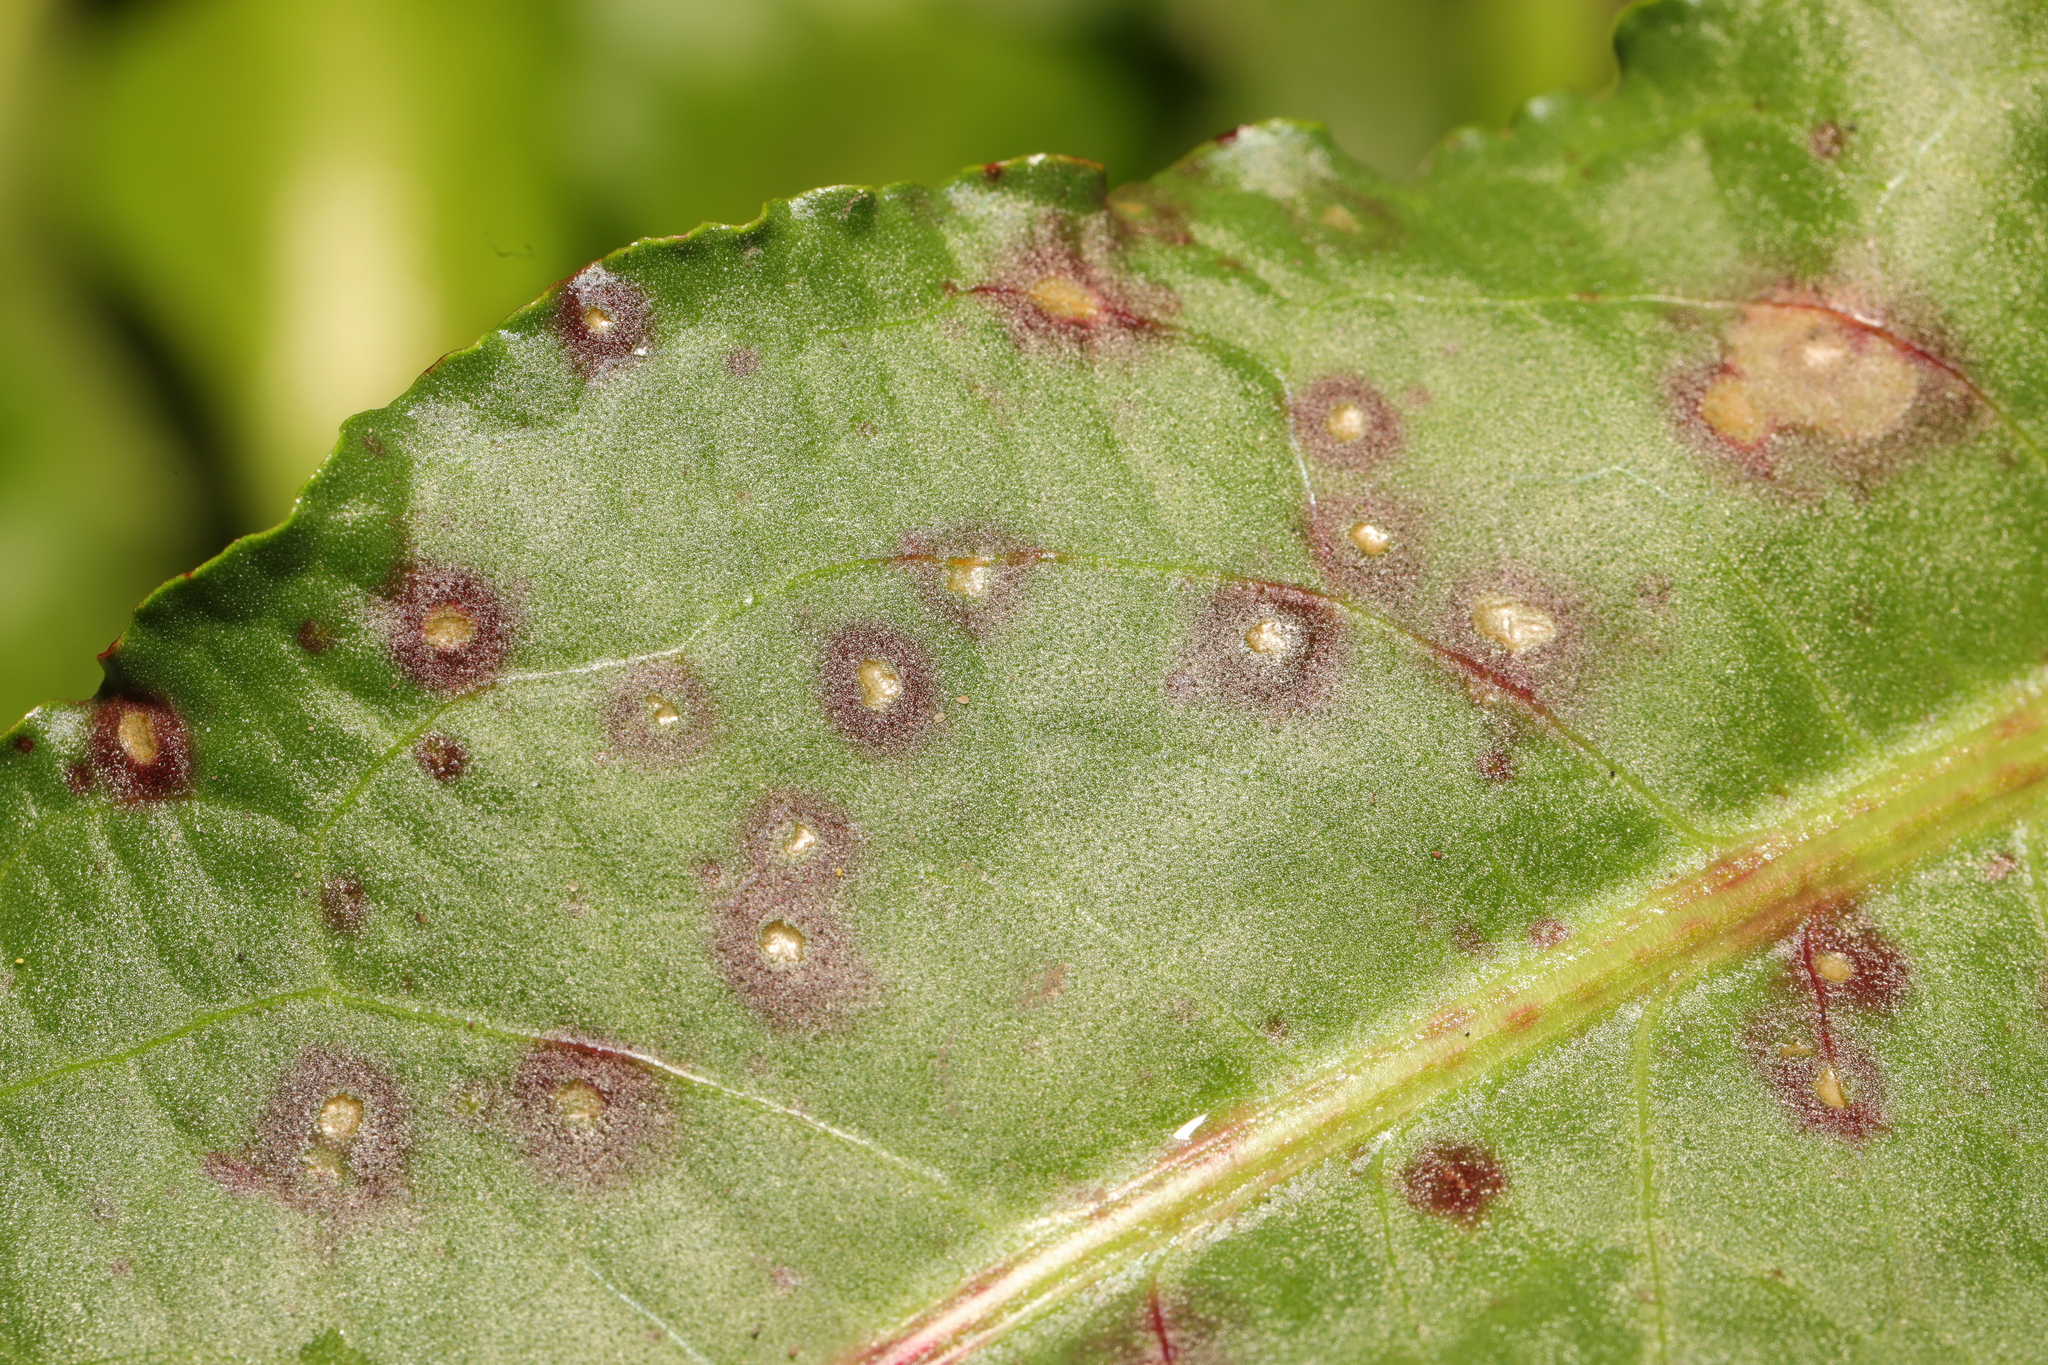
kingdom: Fungi
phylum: Ascomycota
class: Dothideomycetes
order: Mycosphaerellales
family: Mycosphaerellaceae
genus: Ramularia
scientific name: Ramularia rubella
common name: Red dock spot
